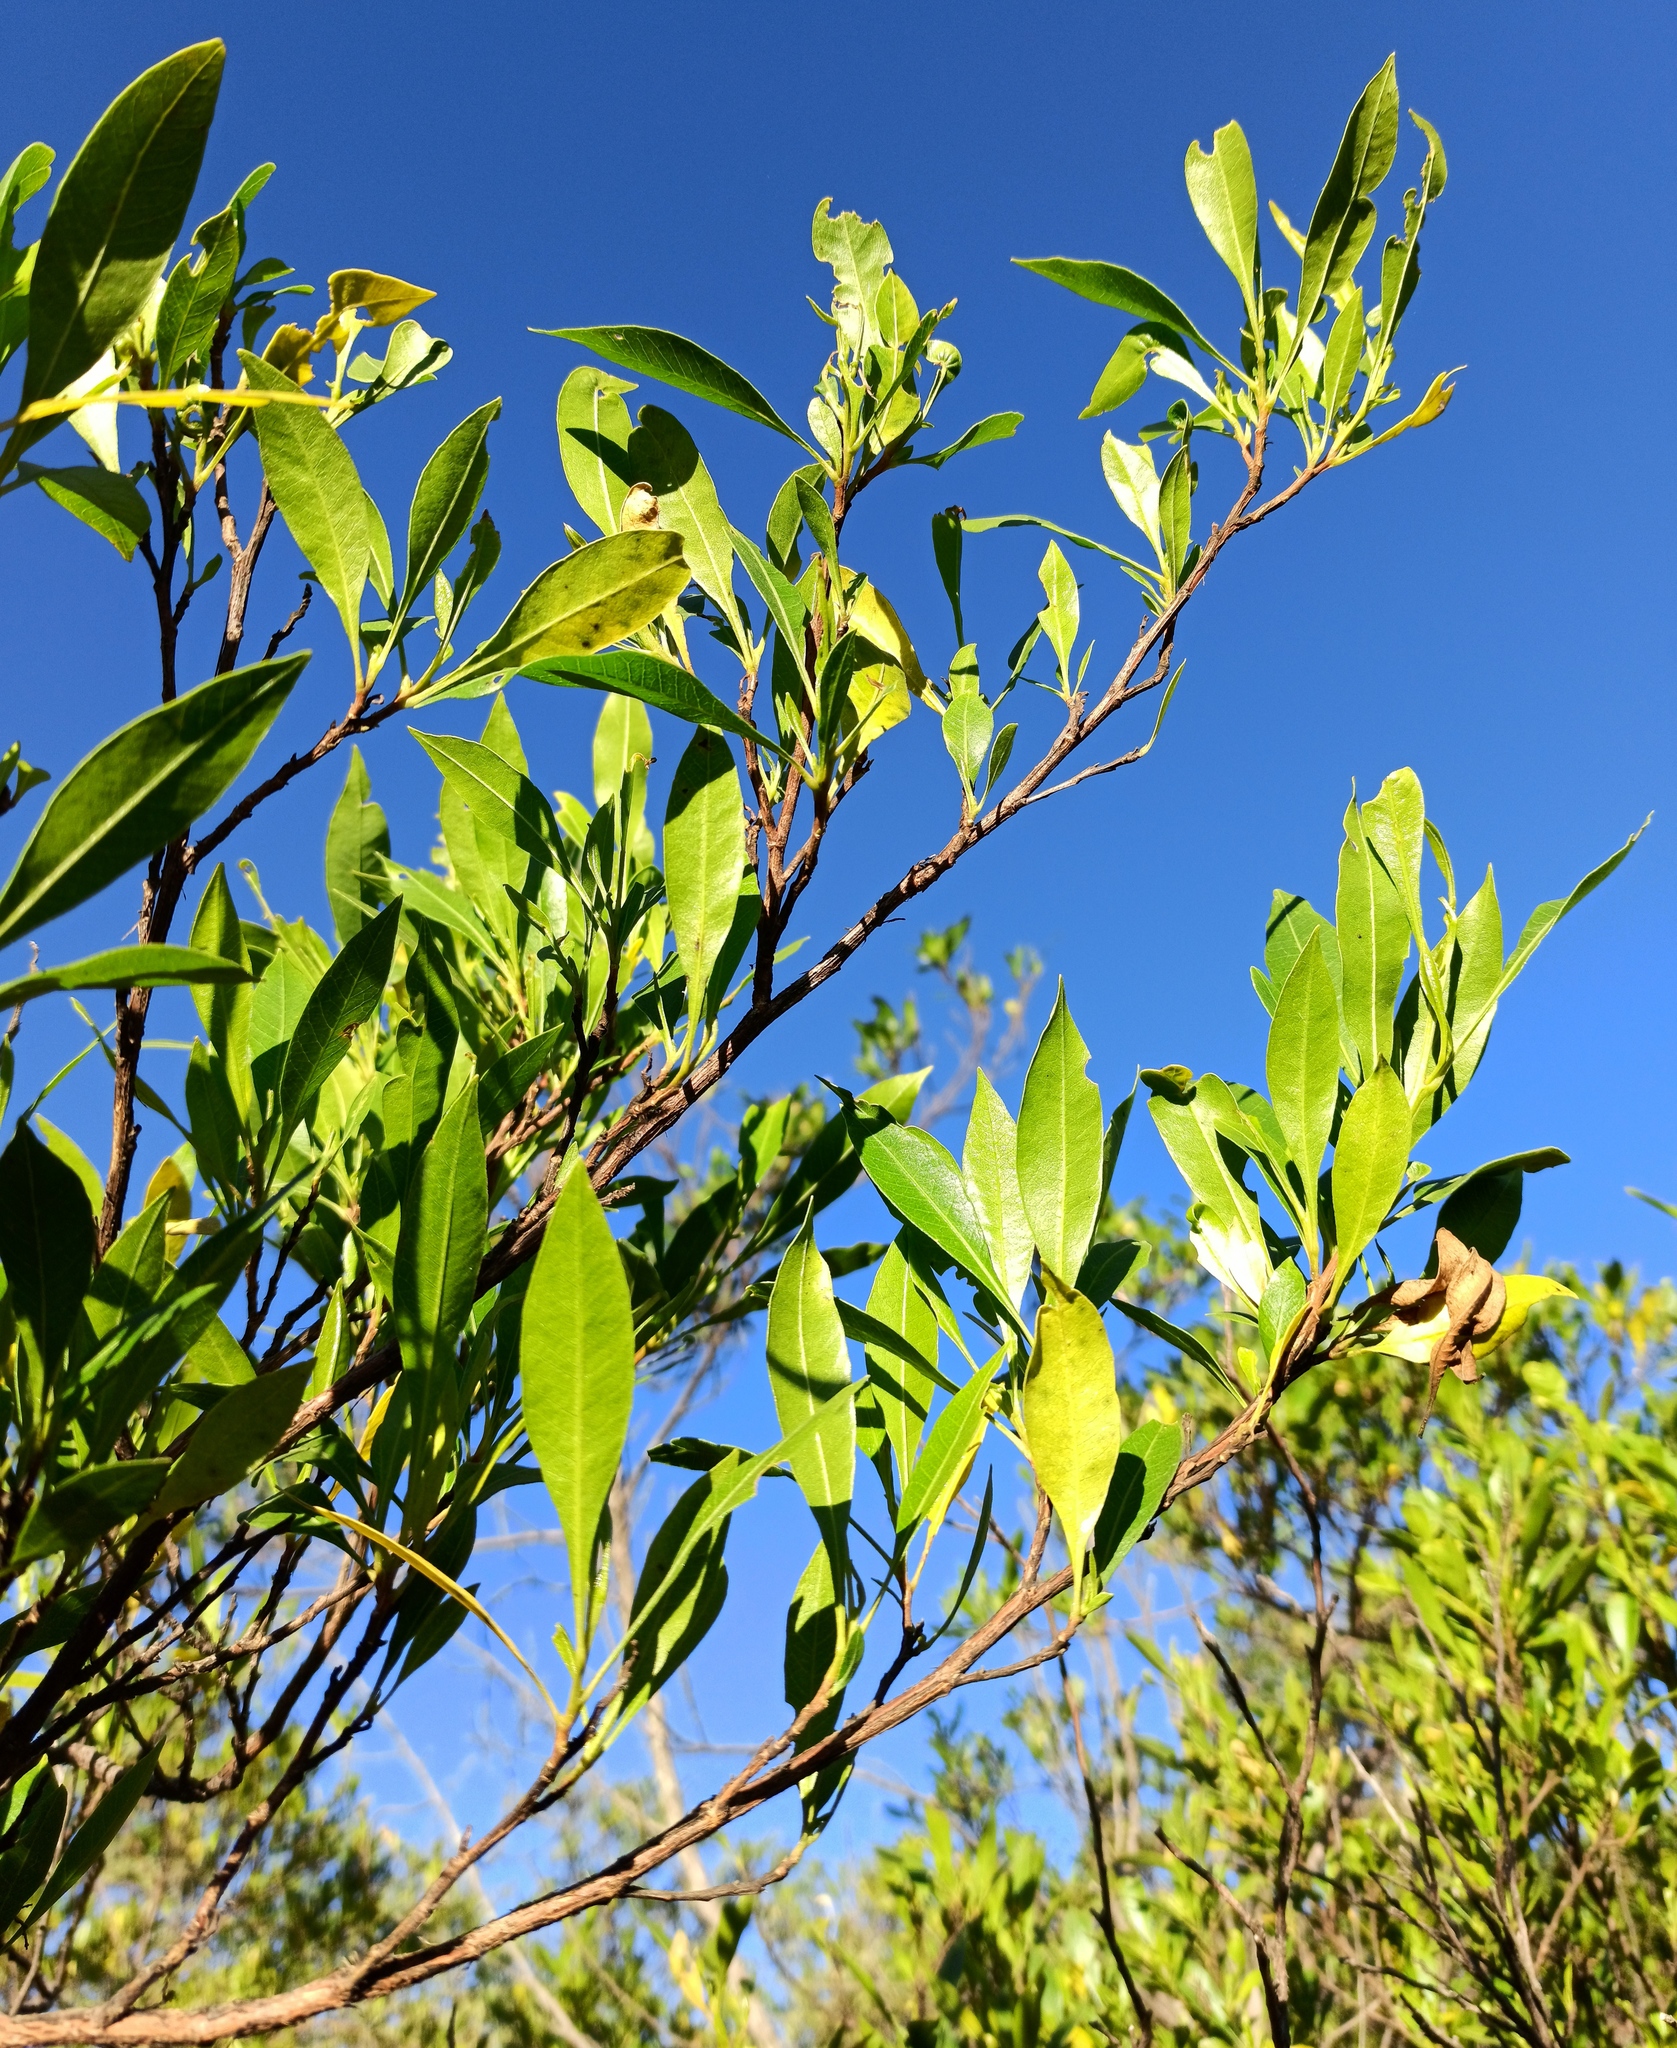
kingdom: Plantae
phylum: Tracheophyta
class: Magnoliopsida
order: Sapindales
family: Sapindaceae
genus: Dodonaea
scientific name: Dodonaea viscosa
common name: Hopbush
